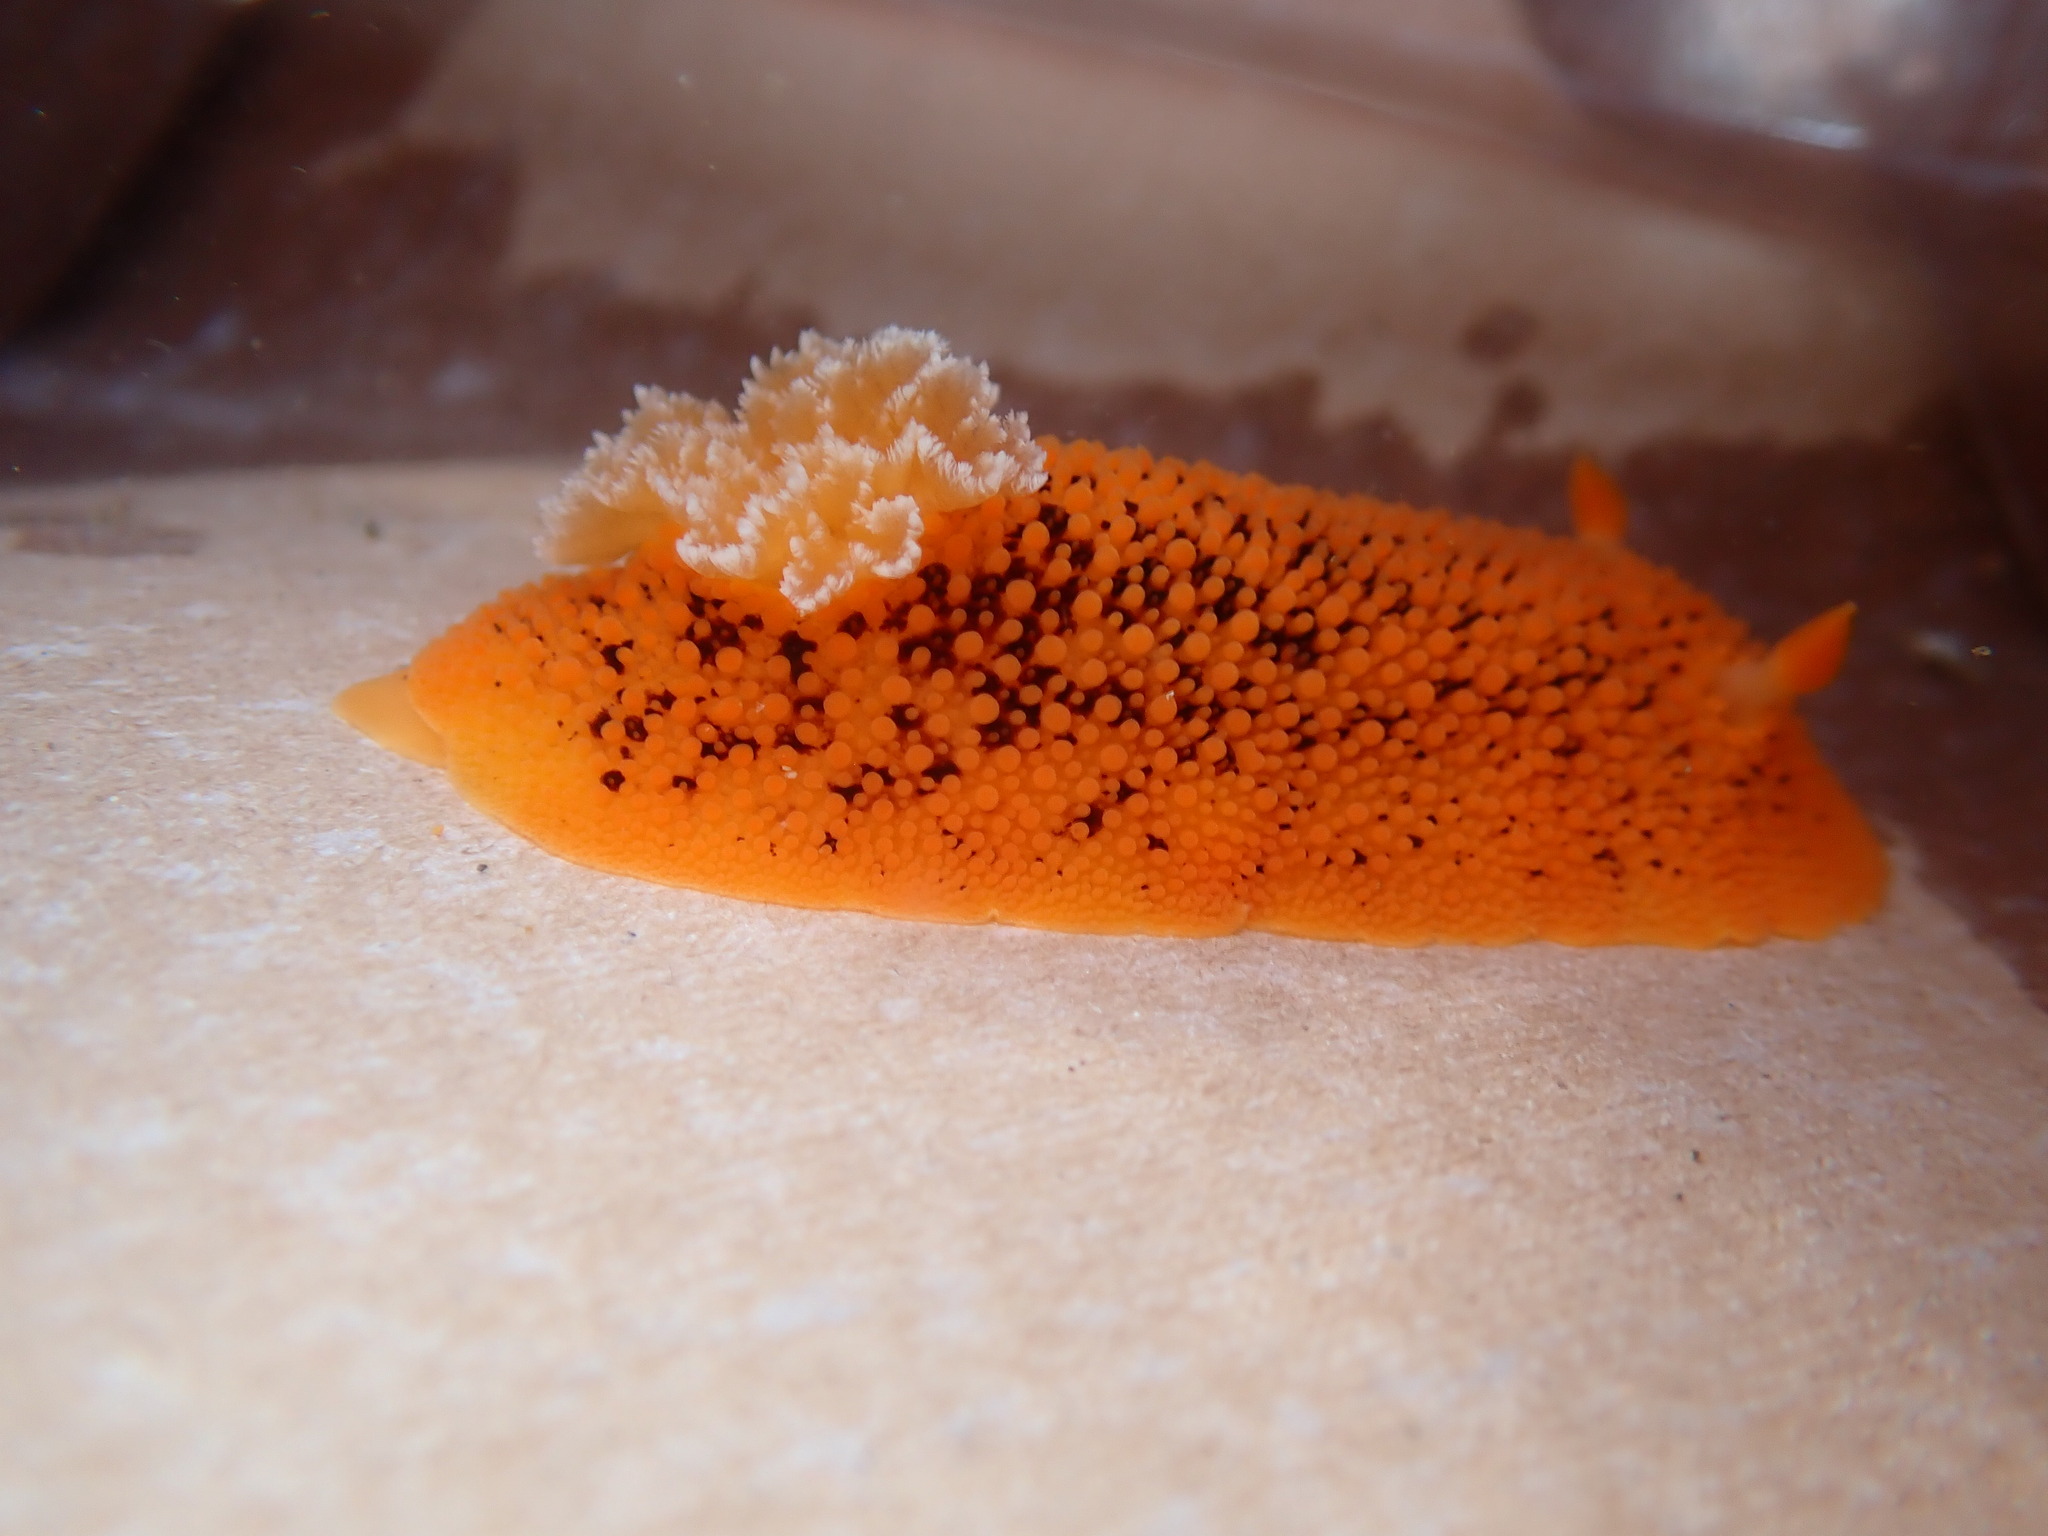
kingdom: Animalia
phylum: Mollusca
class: Gastropoda
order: Nudibranchia
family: Discodorididae
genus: Peltodoris
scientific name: Peltodoris nobilis
